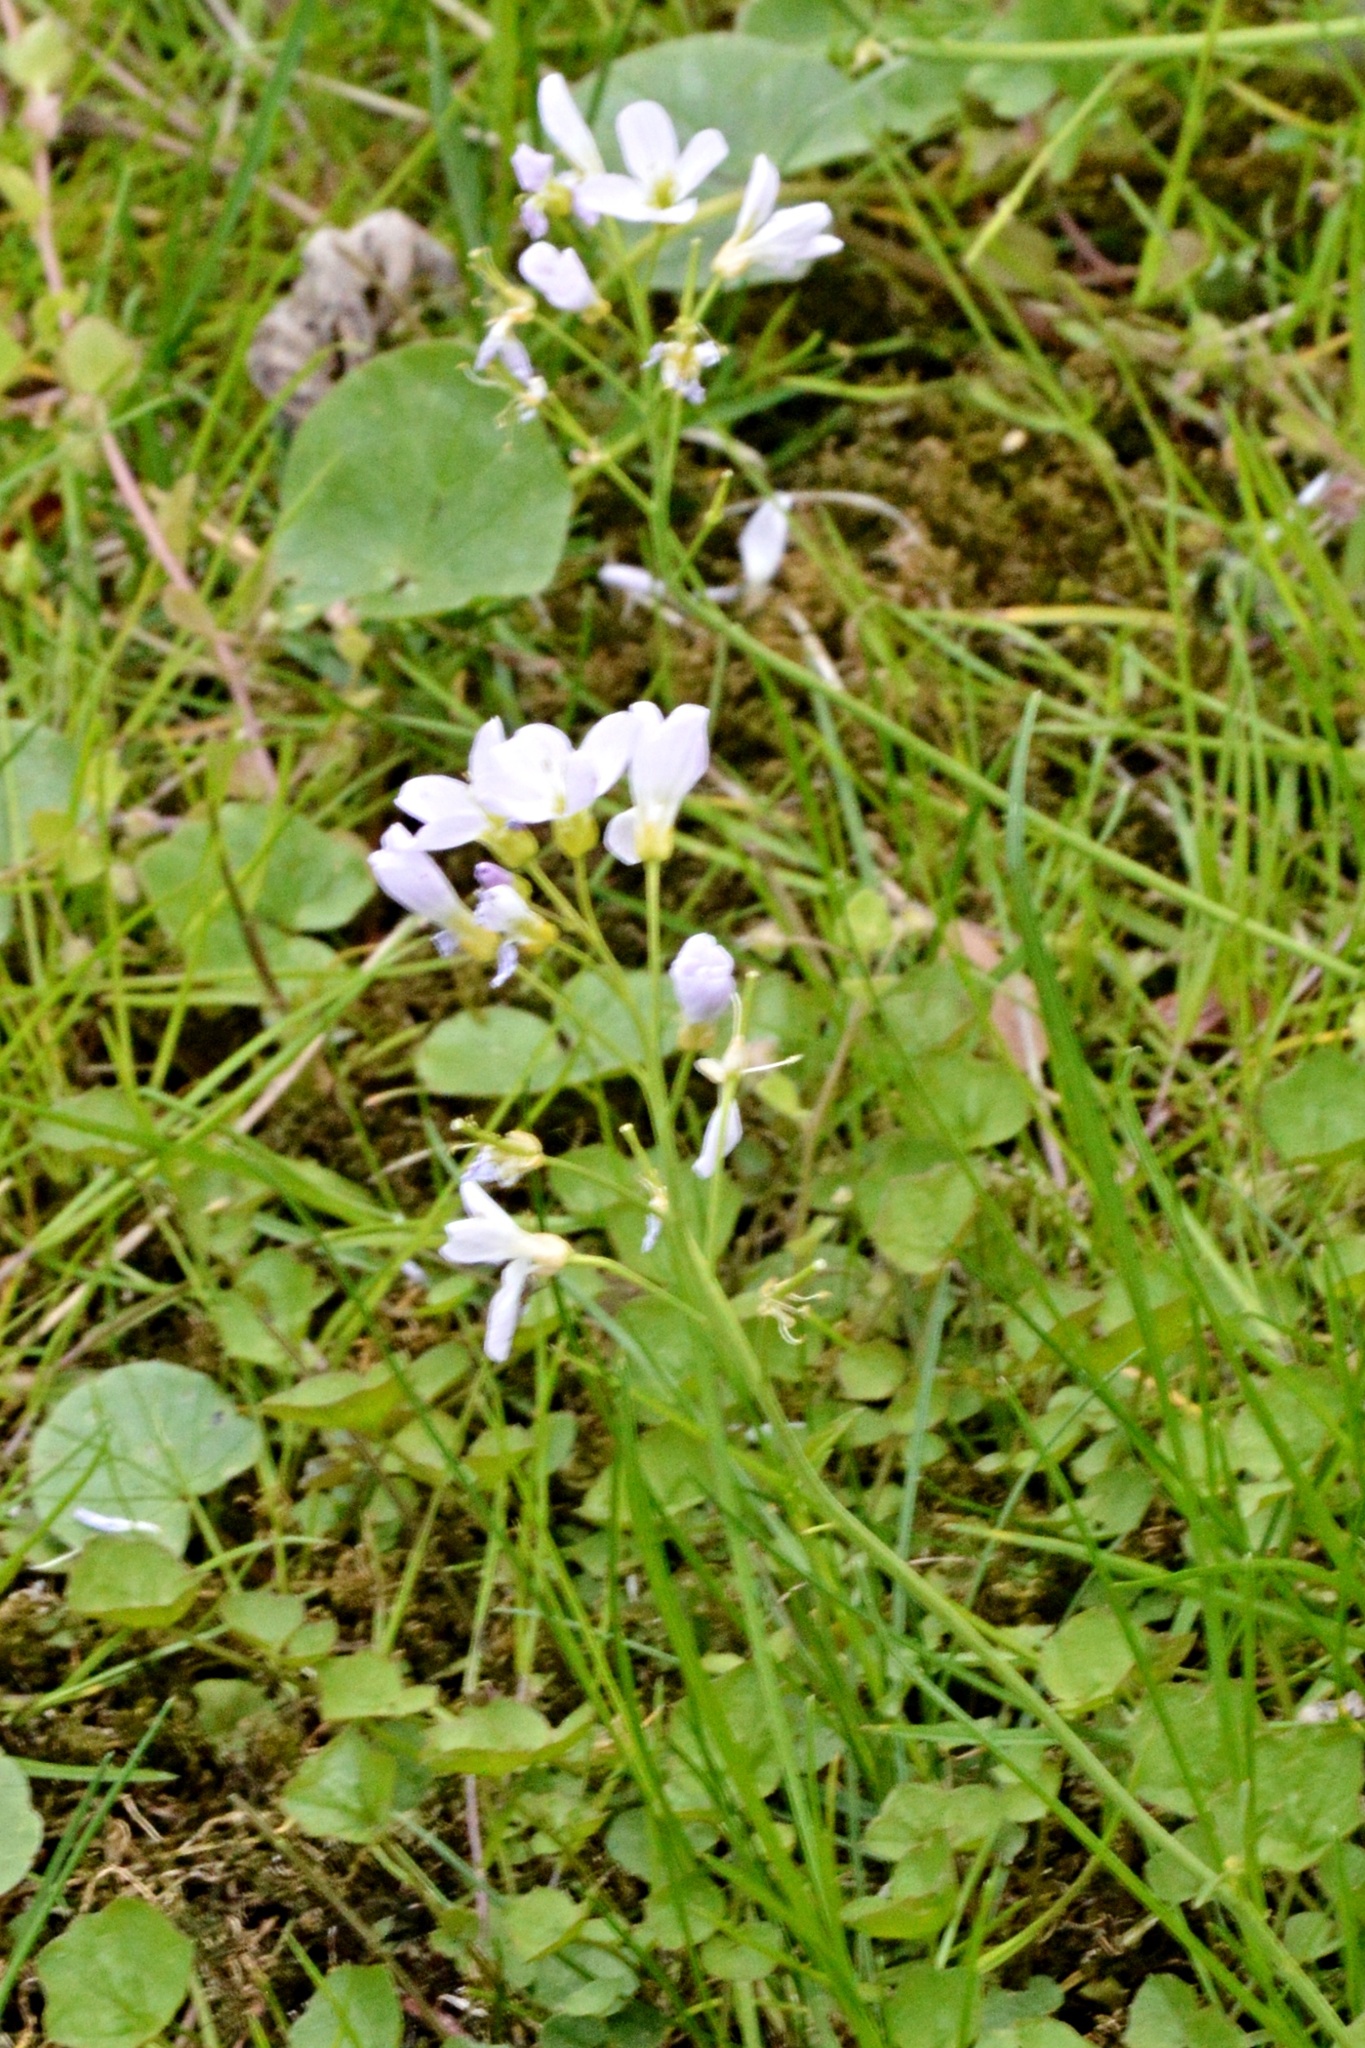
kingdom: Plantae
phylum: Tracheophyta
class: Magnoliopsida
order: Brassicales
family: Brassicaceae
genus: Cardamine
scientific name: Cardamine pratensis
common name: Cuckoo flower
